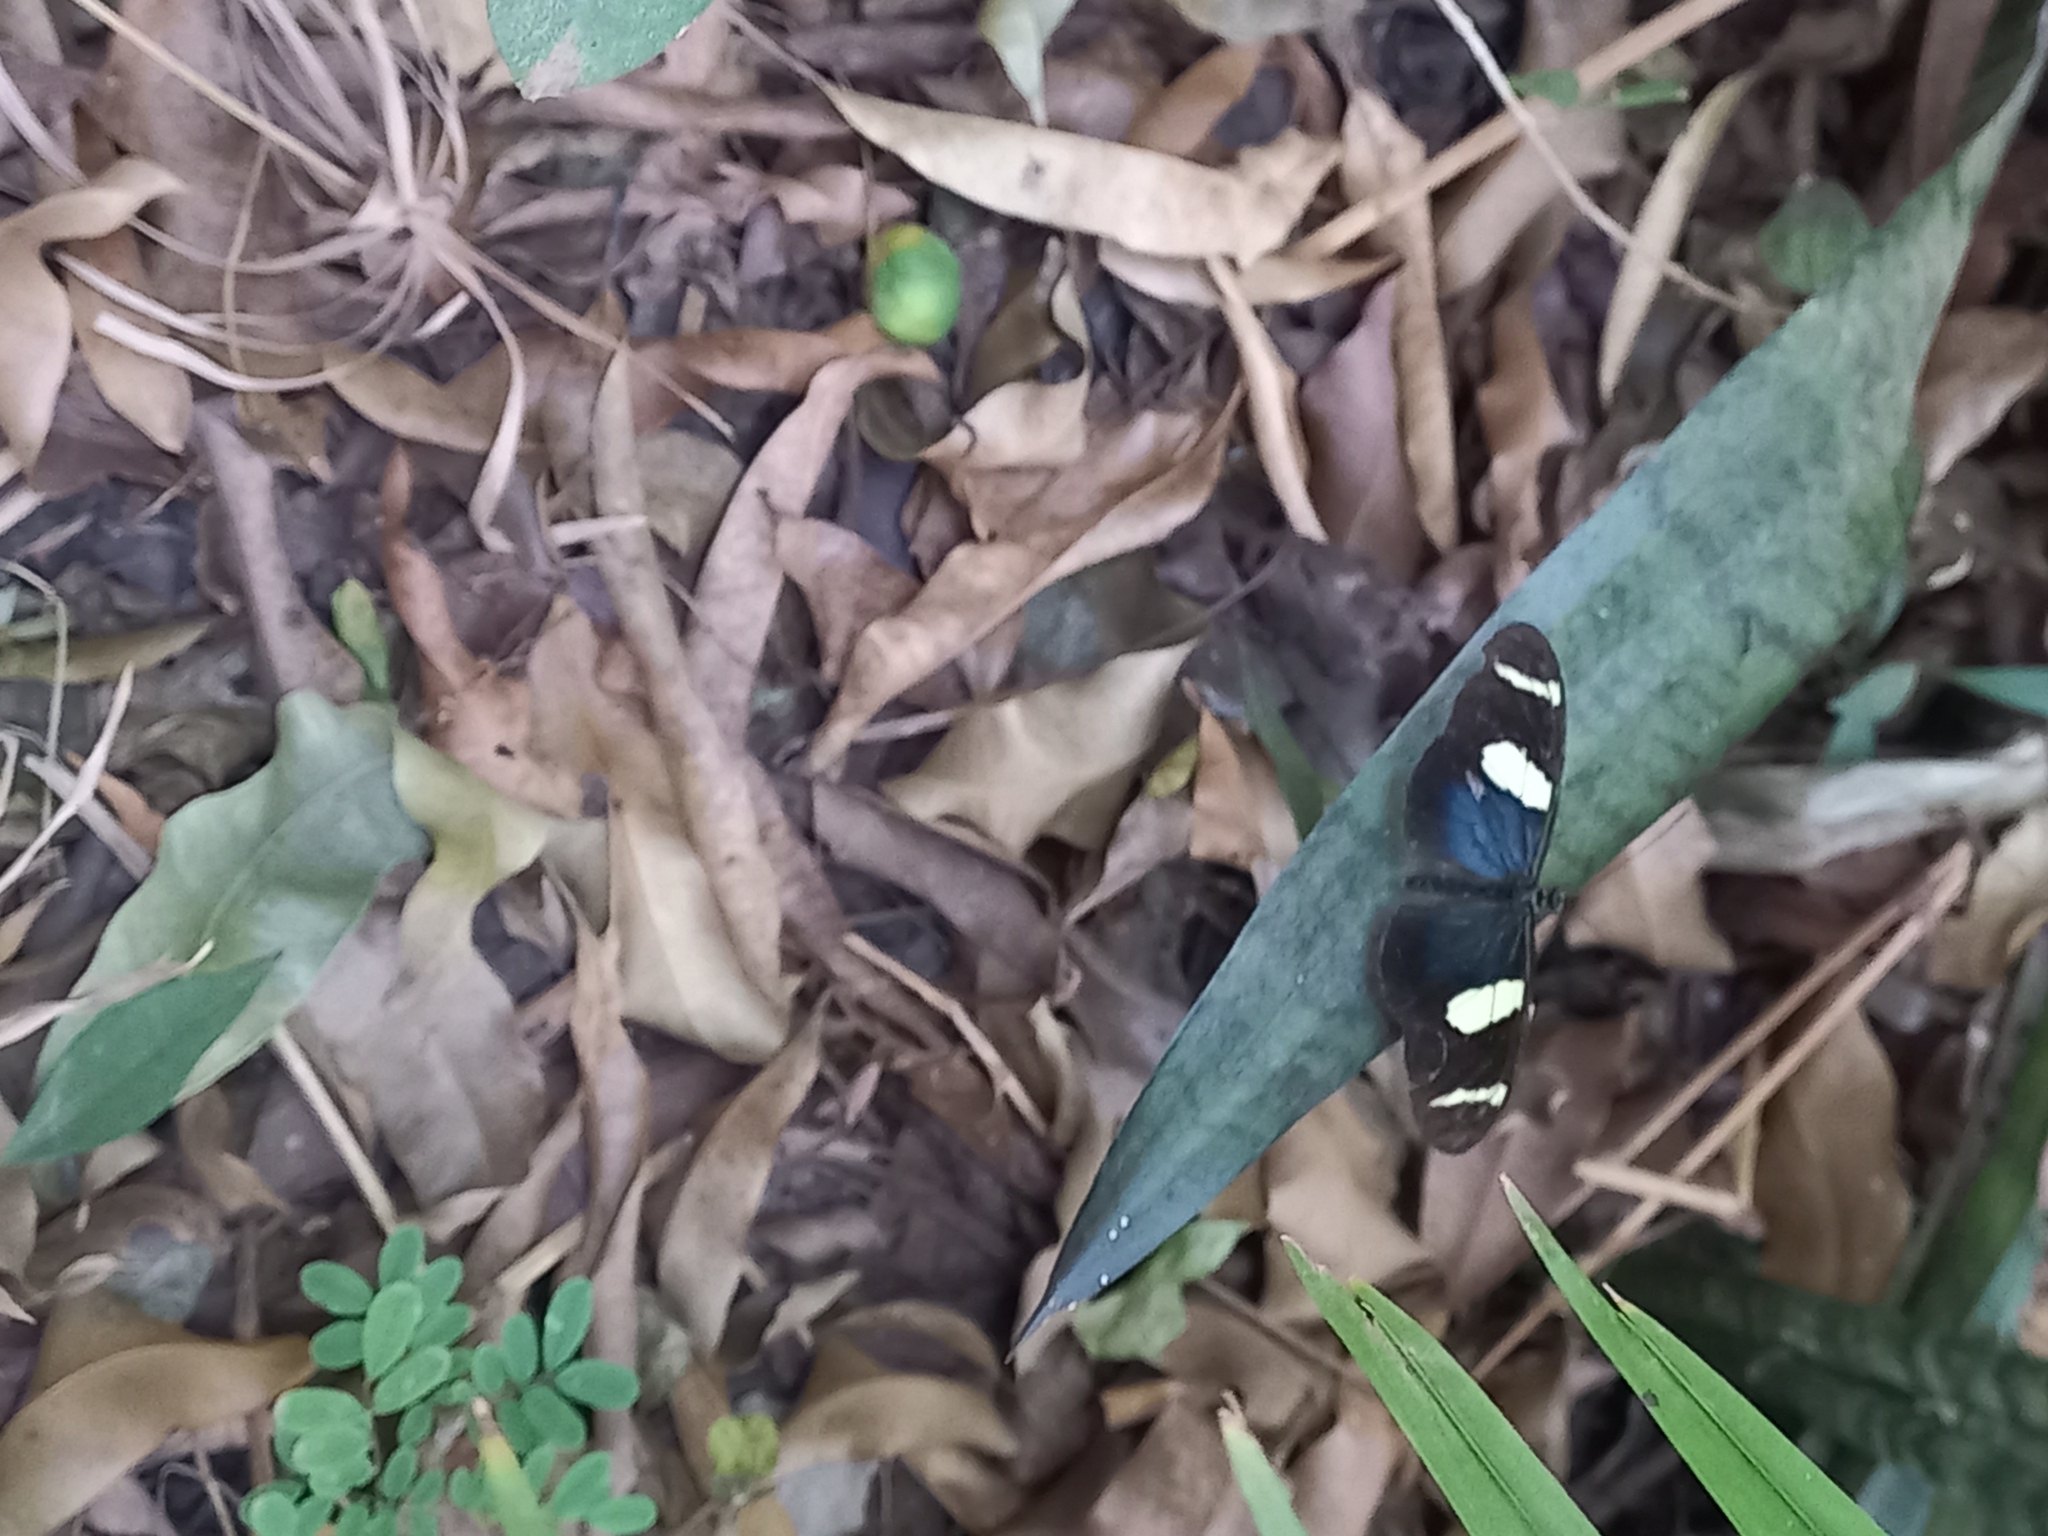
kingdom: Animalia
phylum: Arthropoda
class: Insecta
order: Lepidoptera
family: Nymphalidae
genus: Heliconius
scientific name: Heliconius wallacei
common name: Wallace's longwing
